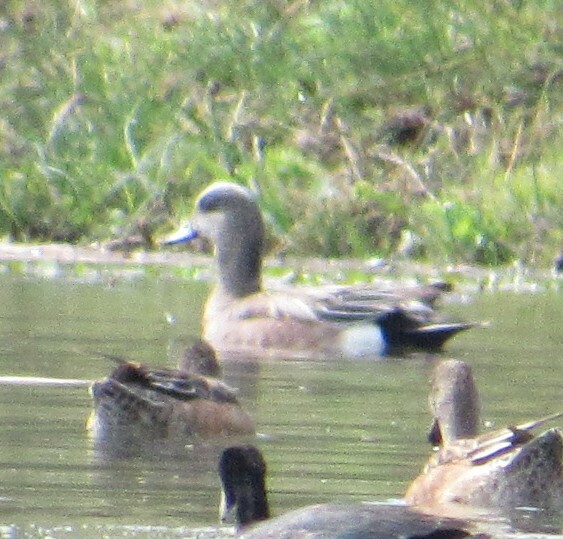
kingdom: Animalia
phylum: Chordata
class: Aves
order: Anseriformes
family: Anatidae
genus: Mareca
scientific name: Mareca americana
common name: American wigeon
